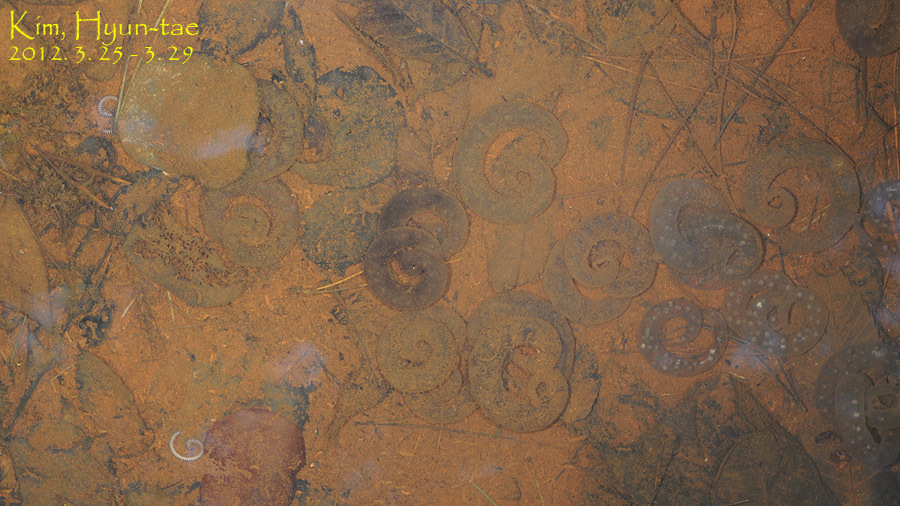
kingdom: Animalia
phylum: Chordata
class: Amphibia
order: Caudata
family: Hynobiidae
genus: Hynobius
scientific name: Hynobius geojeensis
